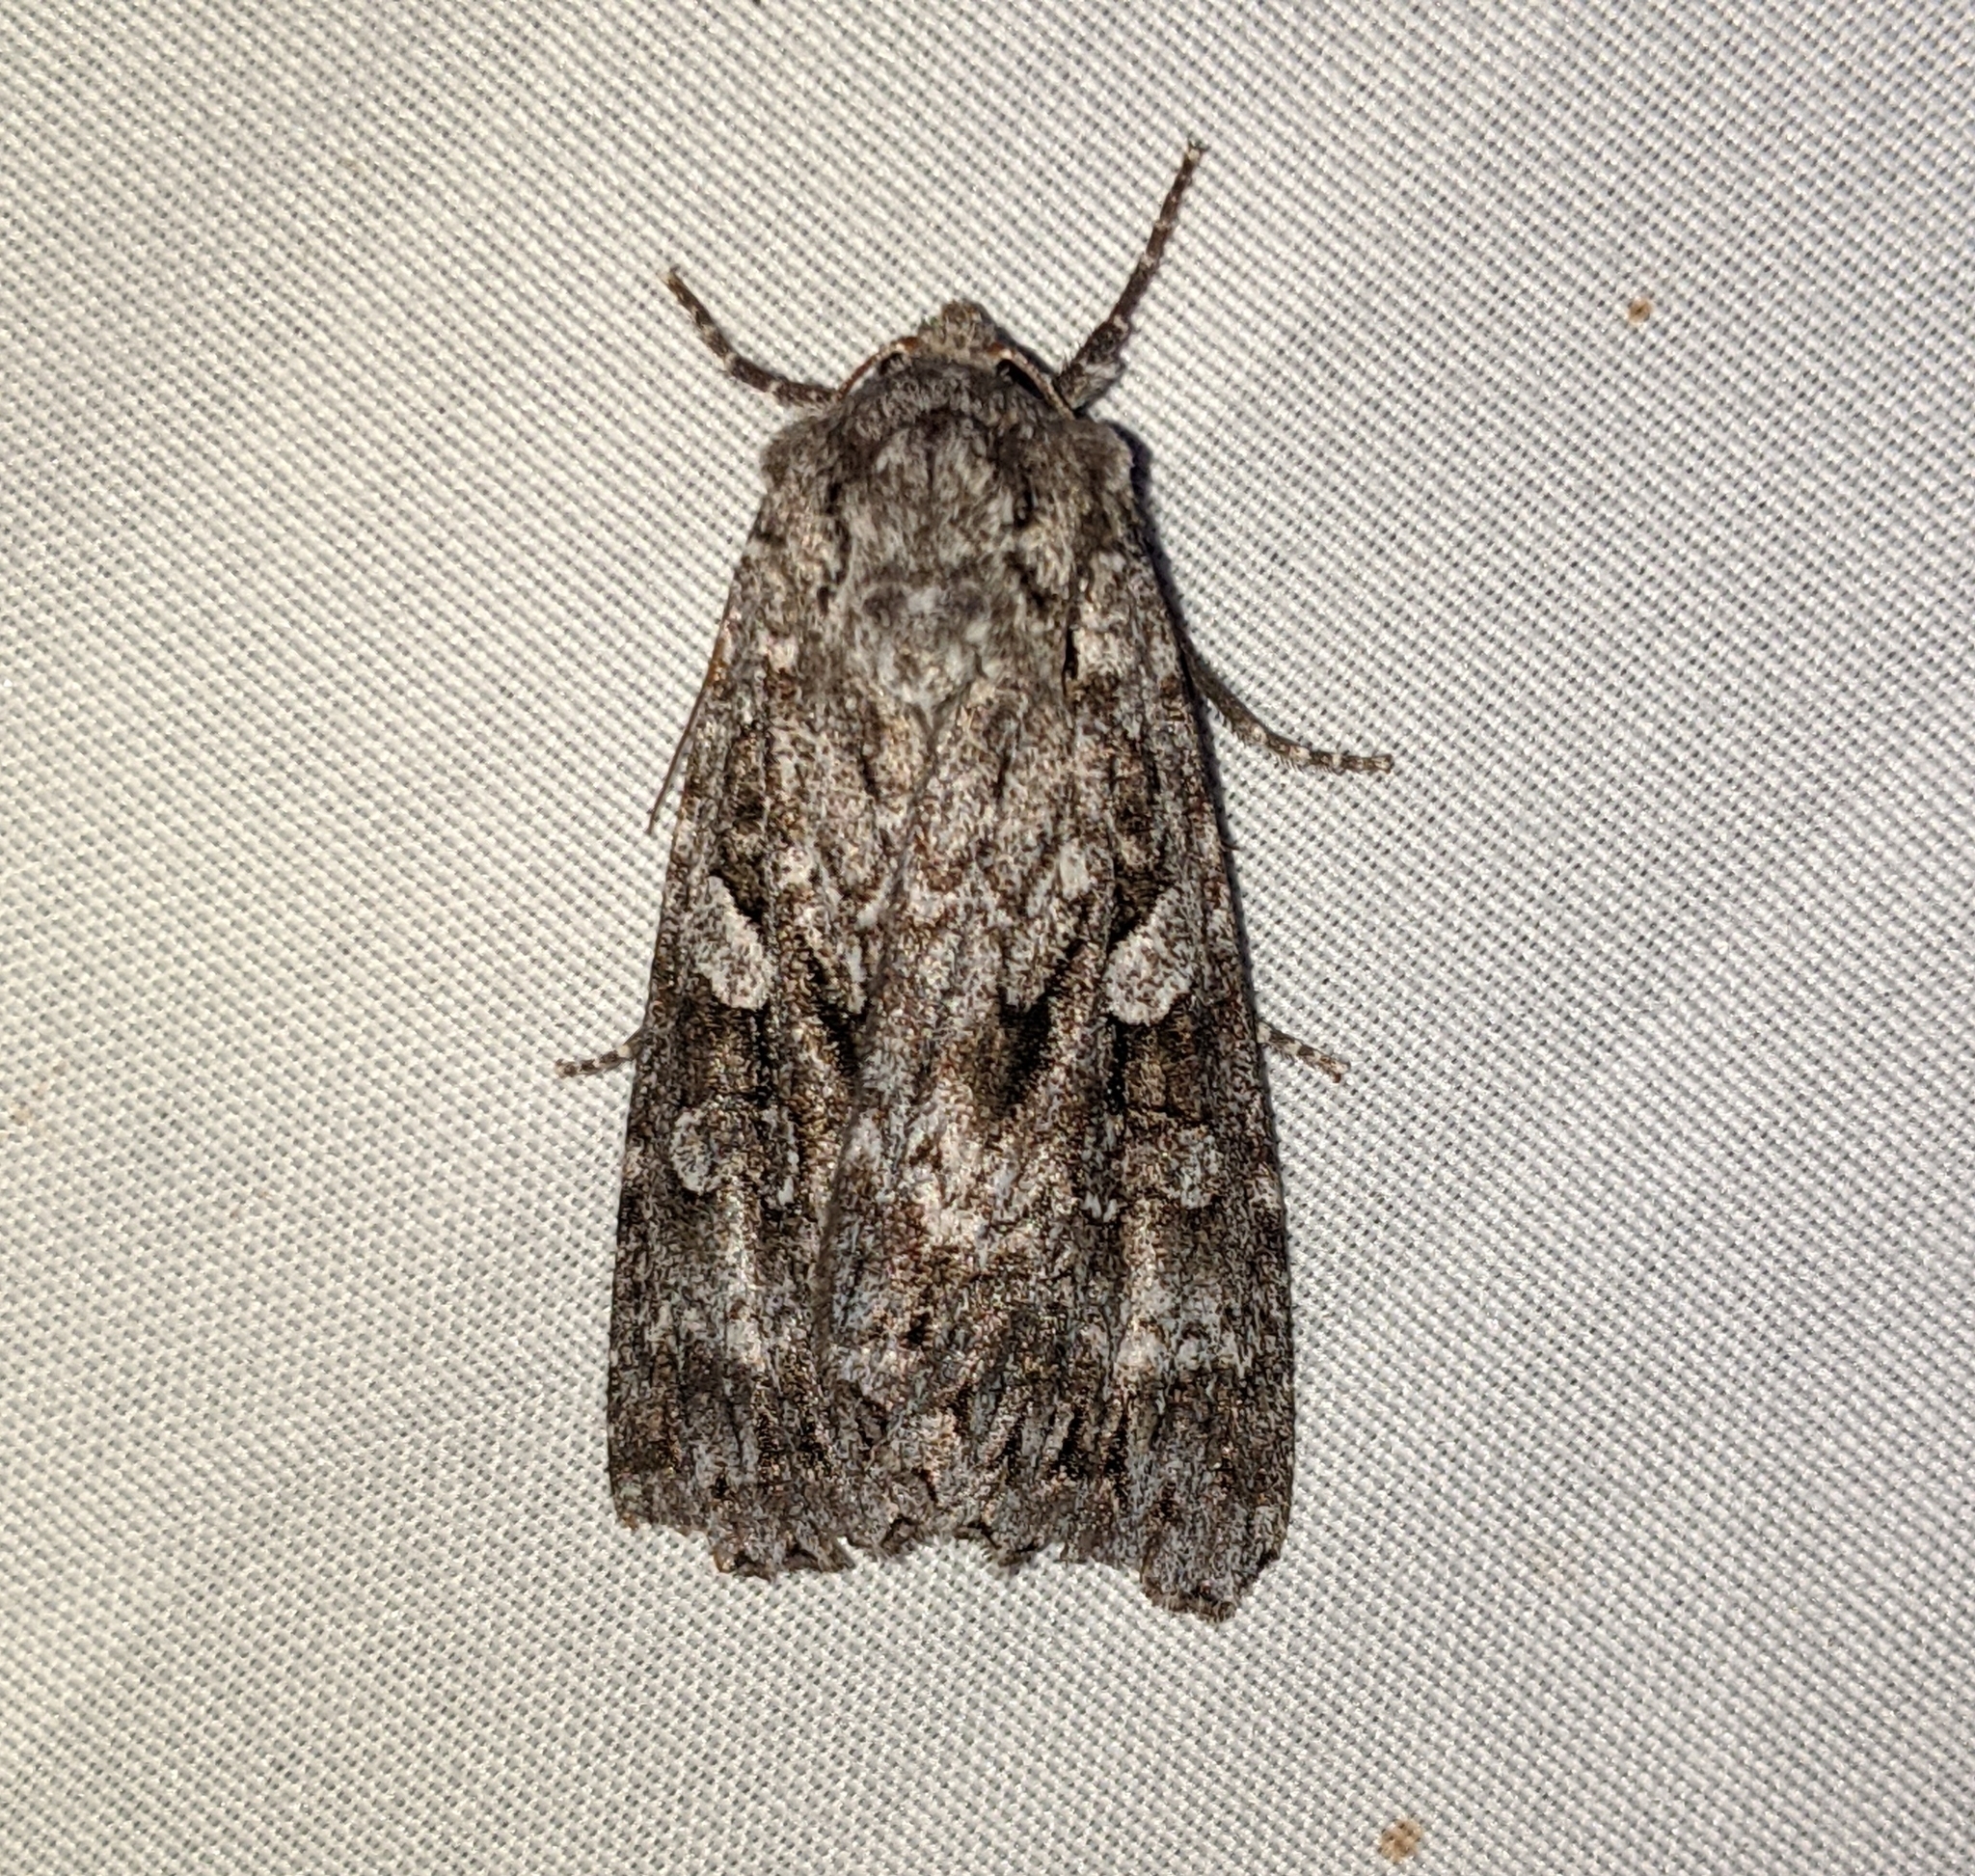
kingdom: Animalia
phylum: Arthropoda
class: Insecta
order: Lepidoptera
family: Noctuidae
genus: Eurois
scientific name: Eurois occulta
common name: Great brocade
